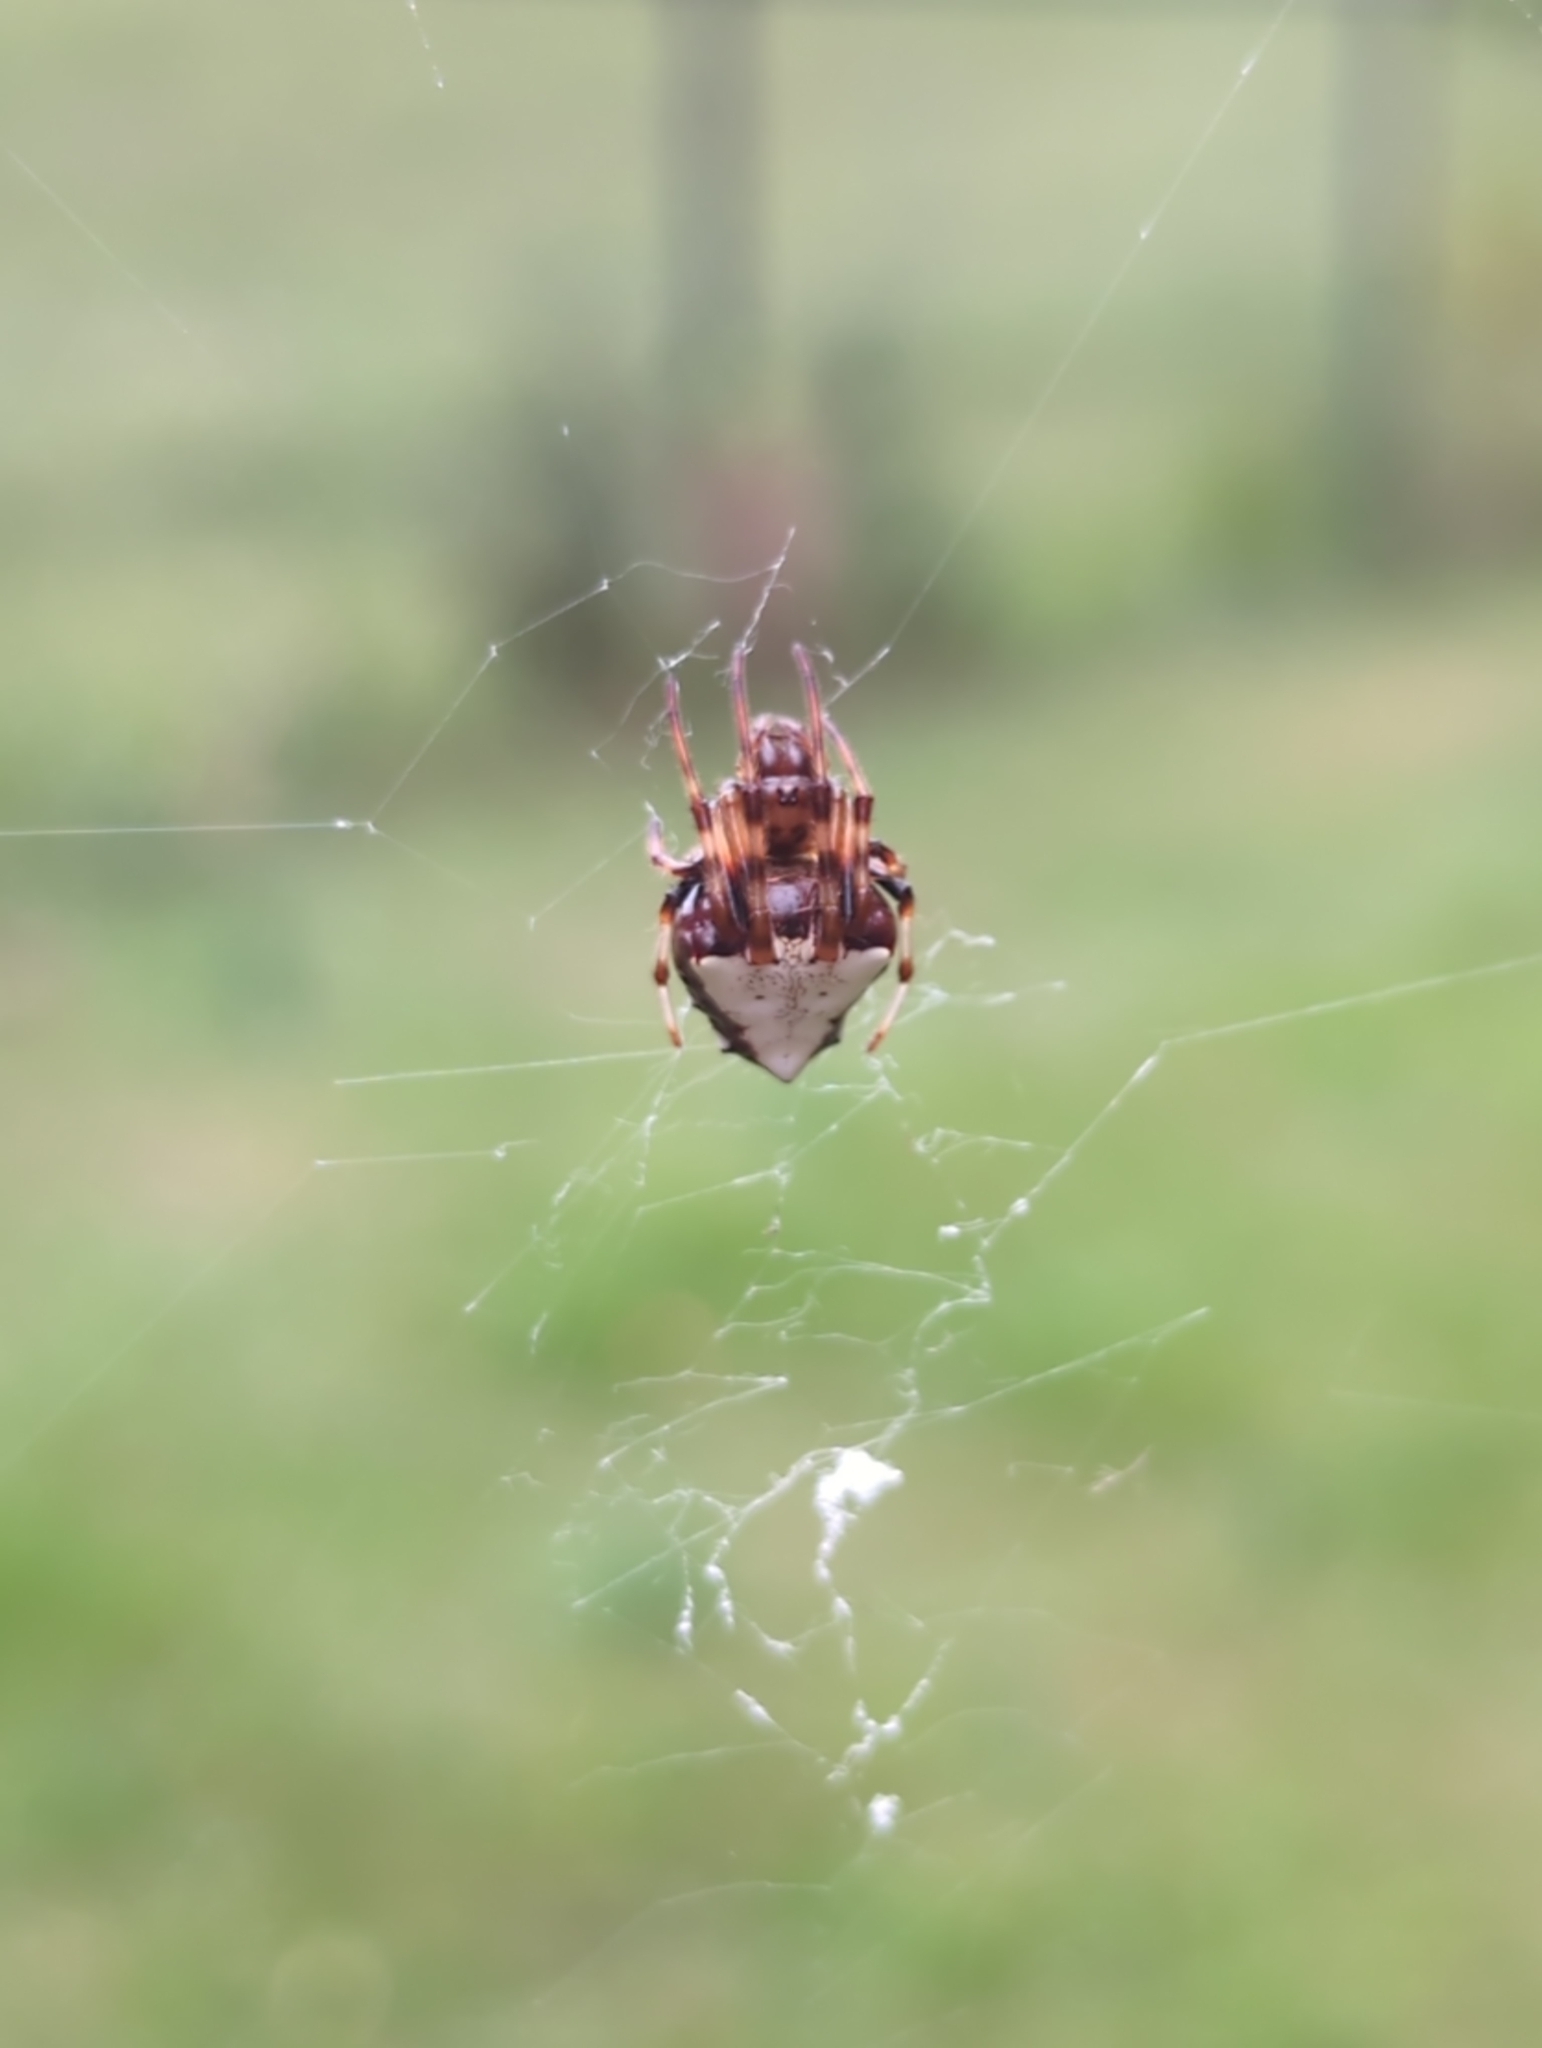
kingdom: Animalia
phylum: Arthropoda
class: Arachnida
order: Araneae
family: Araneidae
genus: Verrucosa
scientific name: Verrucosa arenata
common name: Orb weavers
